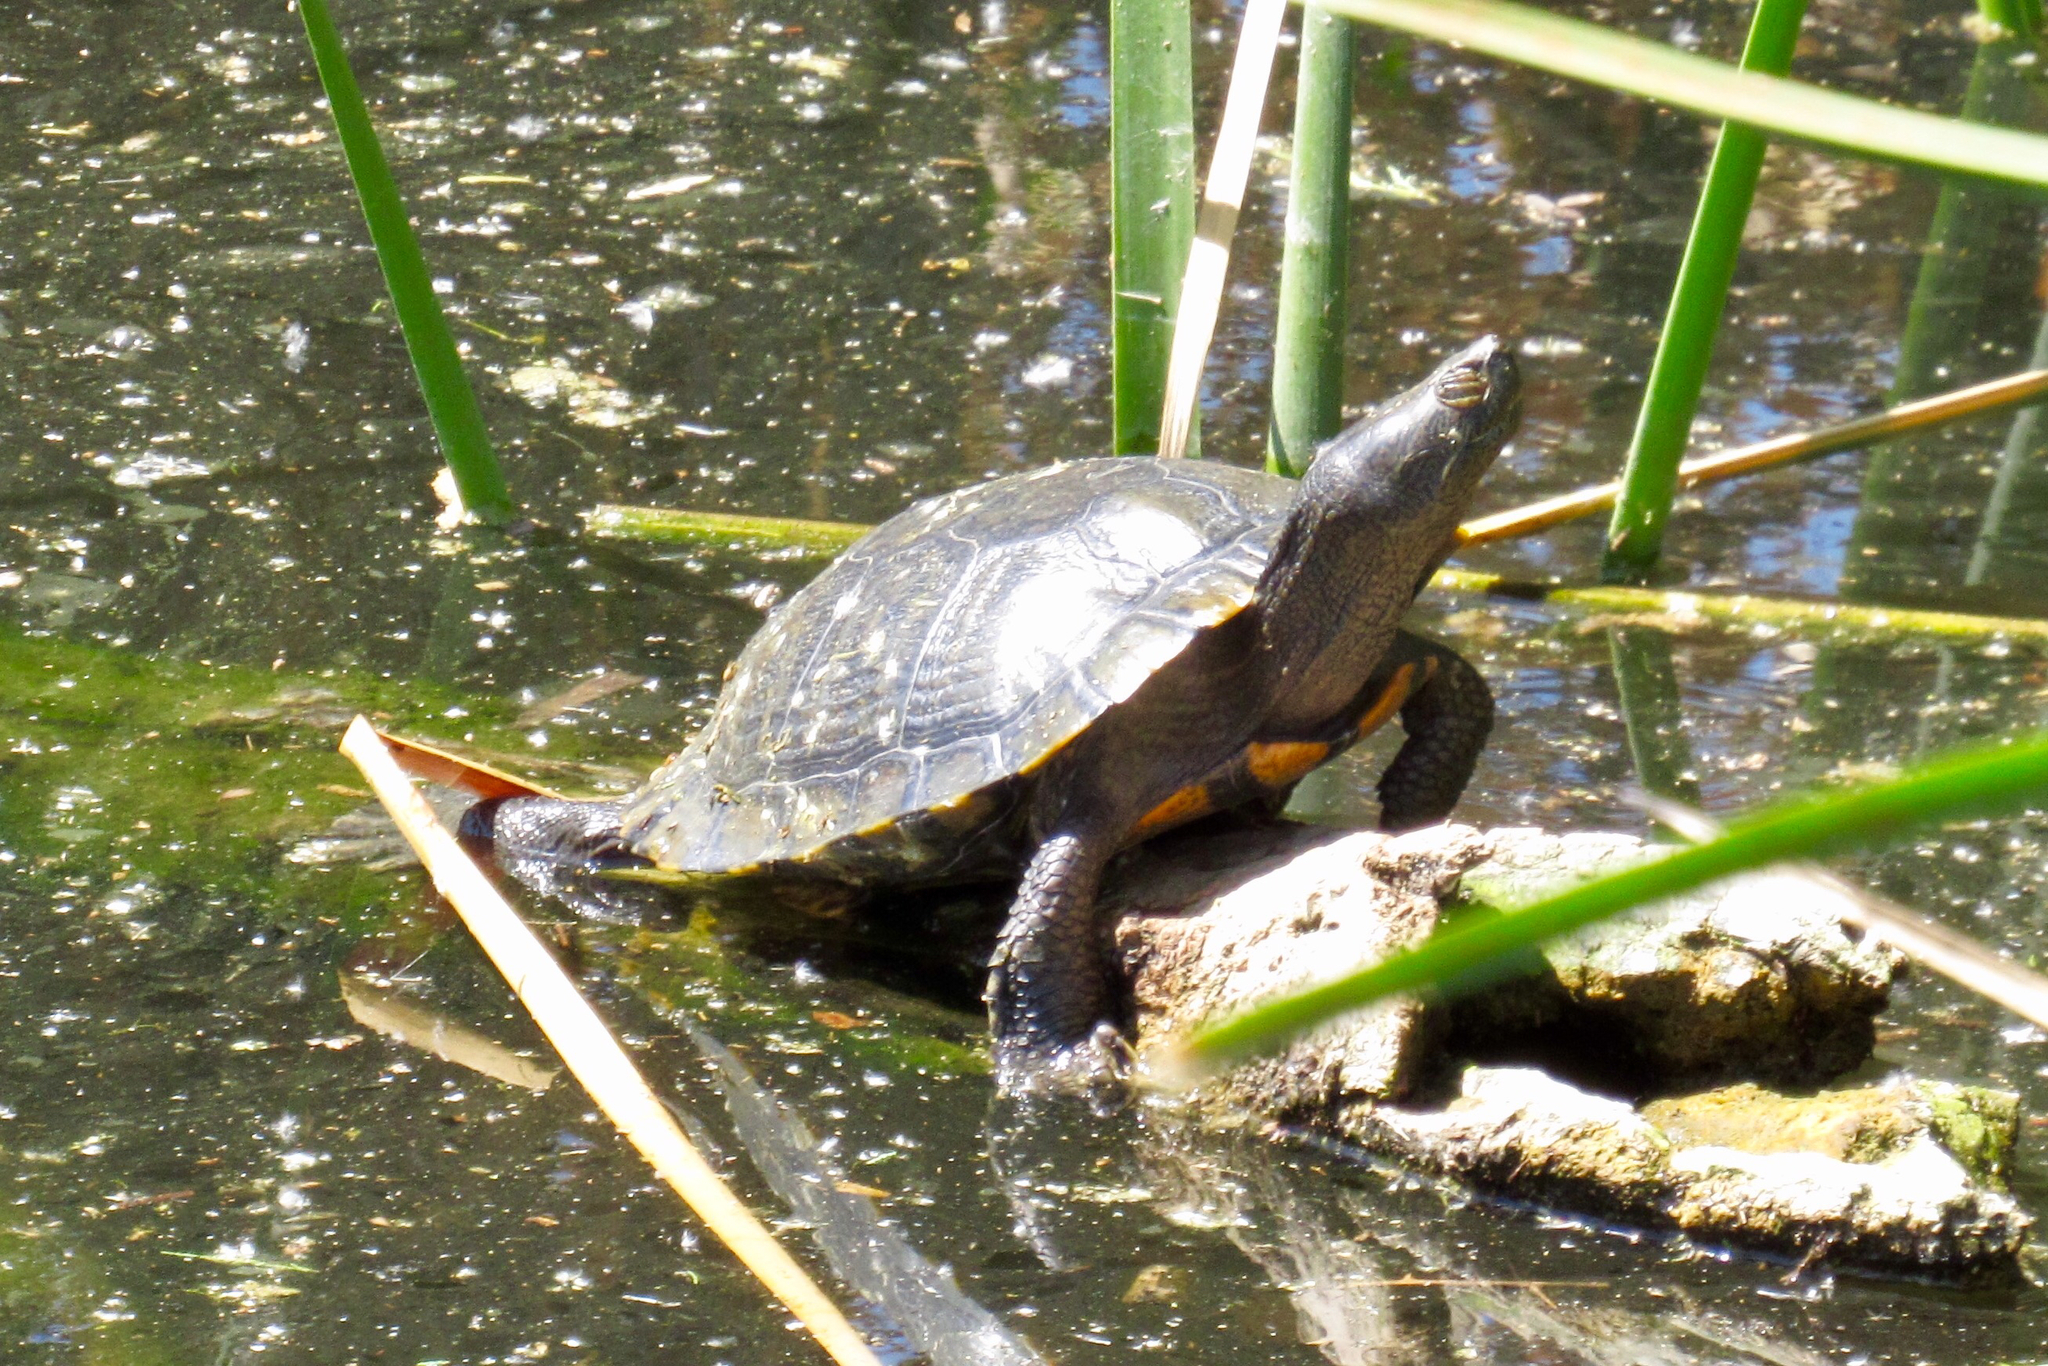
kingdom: Animalia
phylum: Chordata
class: Testudines
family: Emydidae
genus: Trachemys
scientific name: Trachemys scripta
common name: Slider
